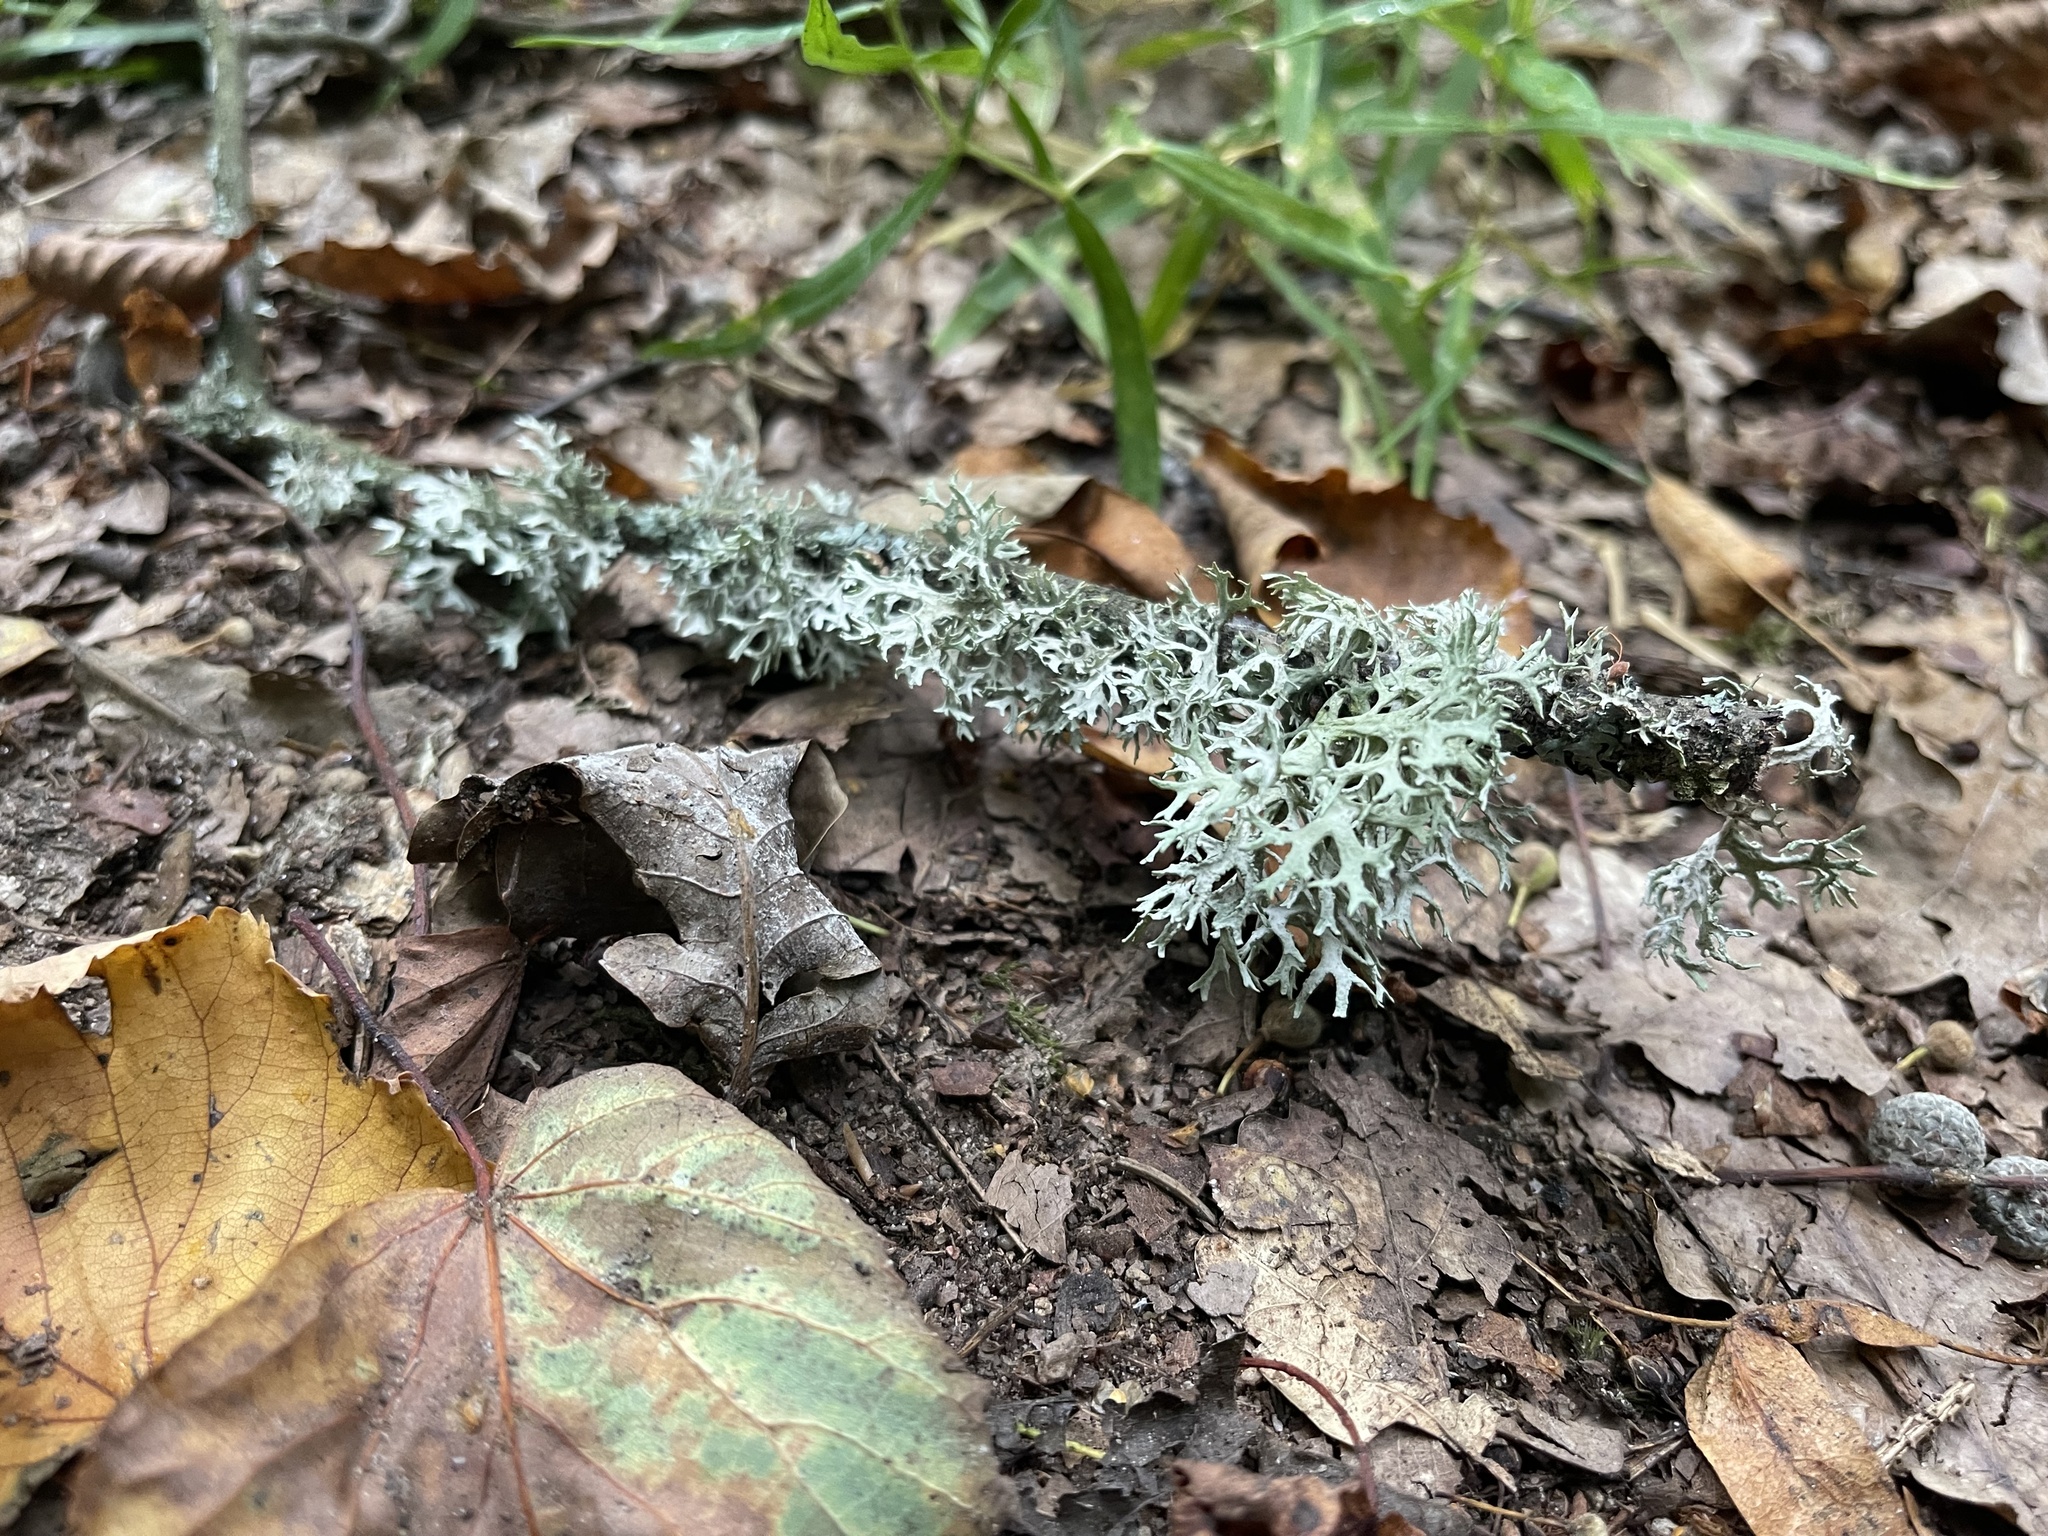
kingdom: Fungi
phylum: Ascomycota
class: Lecanoromycetes
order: Lecanorales
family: Parmeliaceae
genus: Evernia
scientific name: Evernia prunastri
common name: Oak moss
